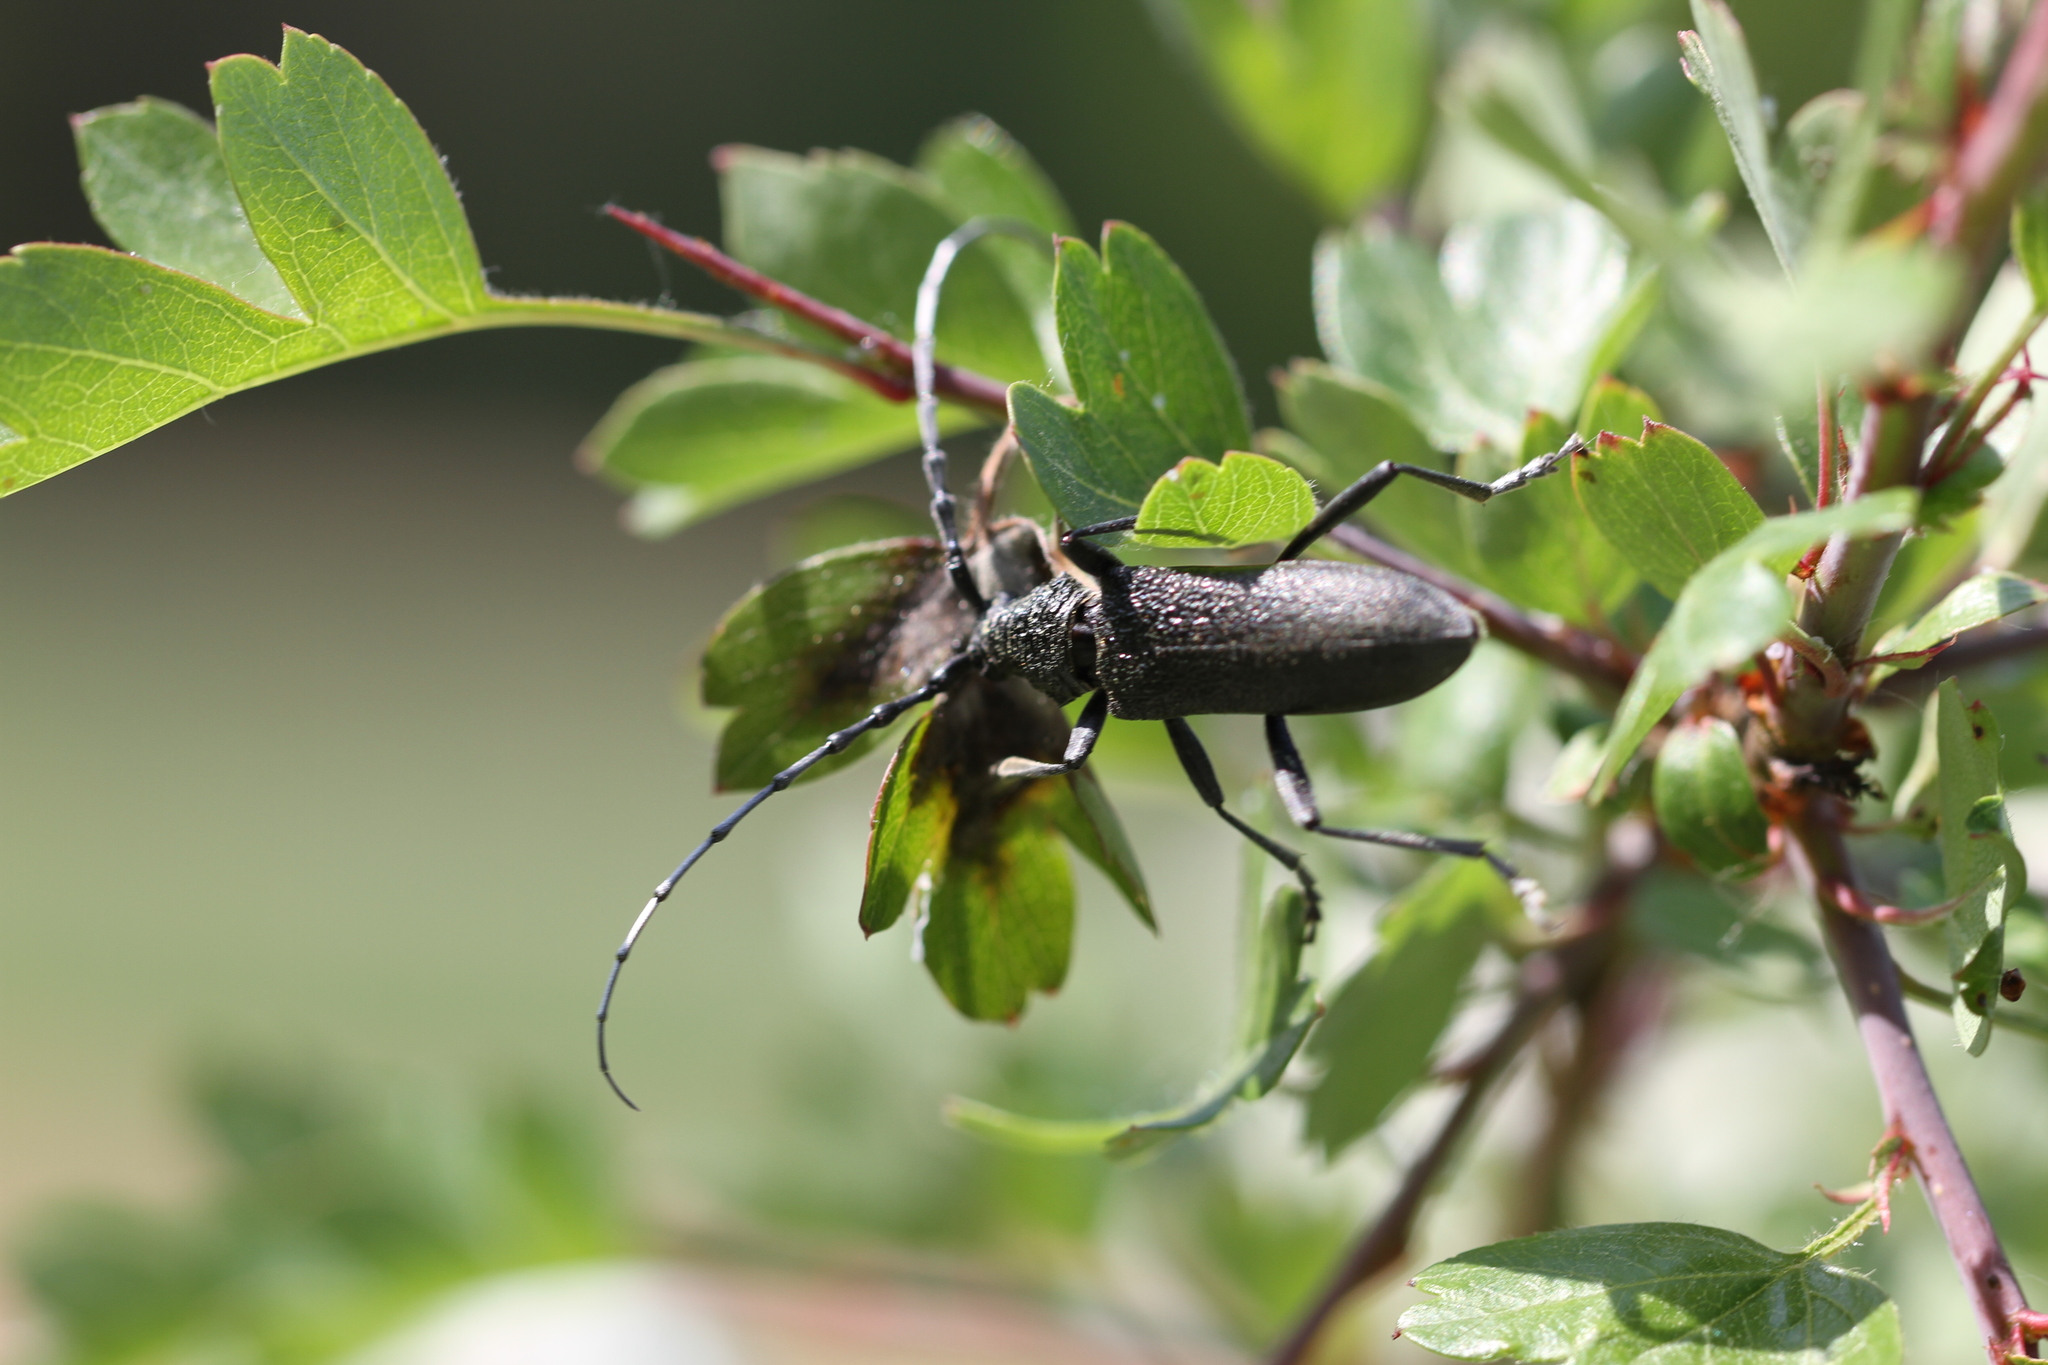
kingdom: Animalia
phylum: Arthropoda
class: Insecta
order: Coleoptera
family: Cerambycidae
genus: Cerambyx
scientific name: Cerambyx scopolii
